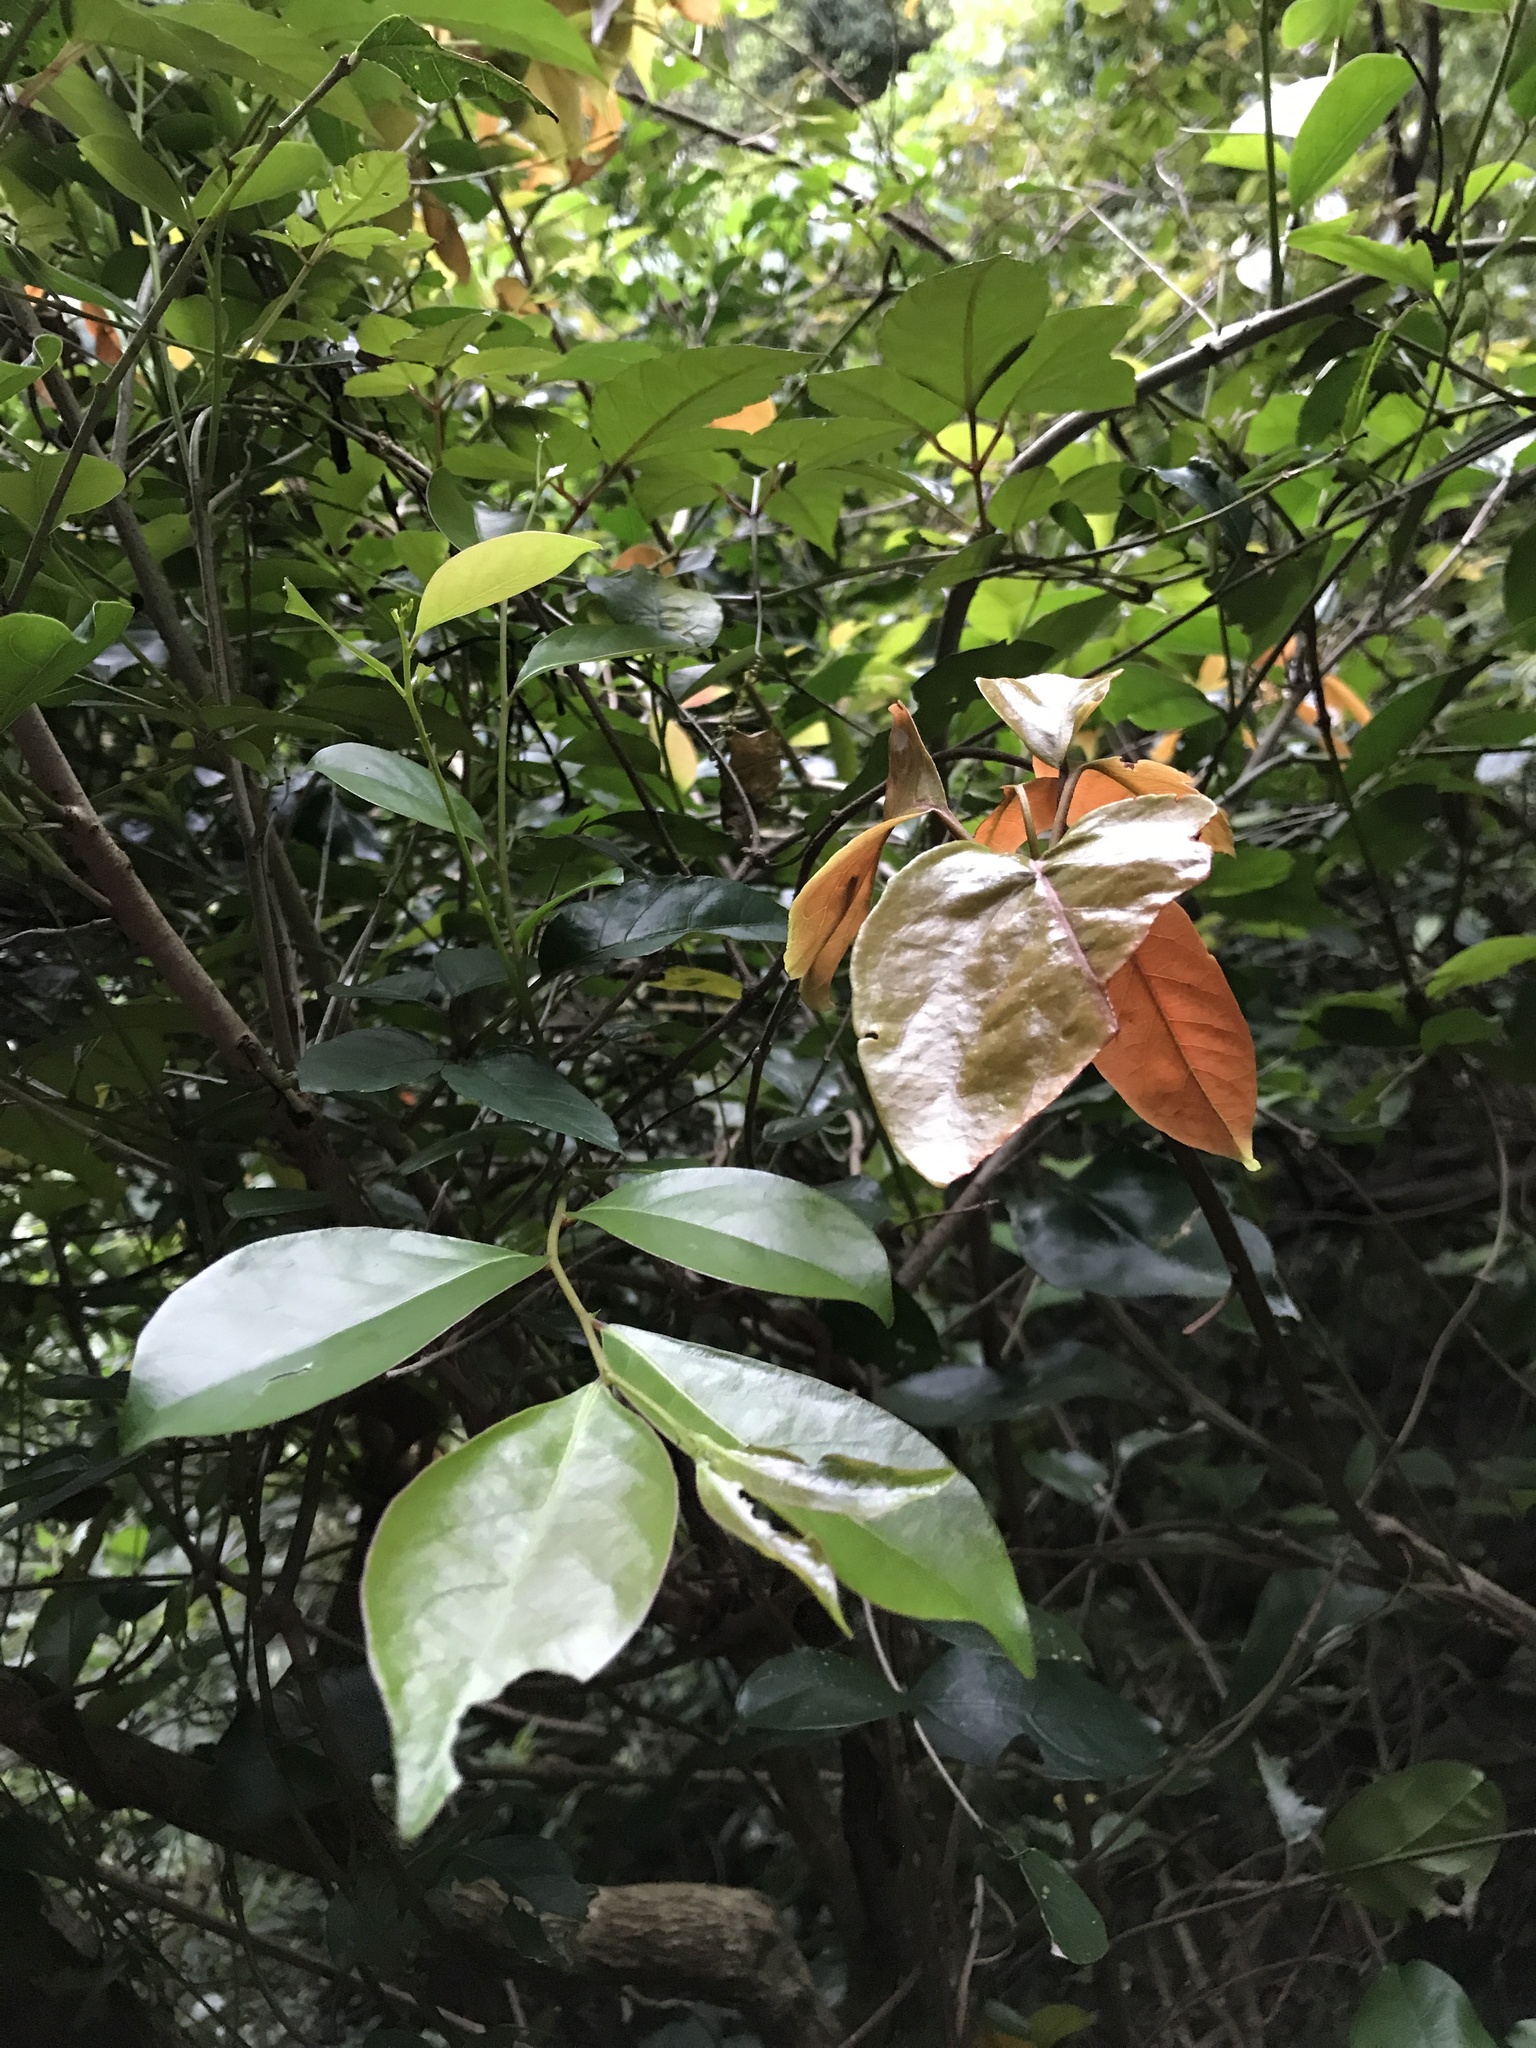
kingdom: Plantae
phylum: Tracheophyta
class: Magnoliopsida
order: Solanales
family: Convolvulaceae
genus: Erycibe
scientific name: Erycibe henryi
